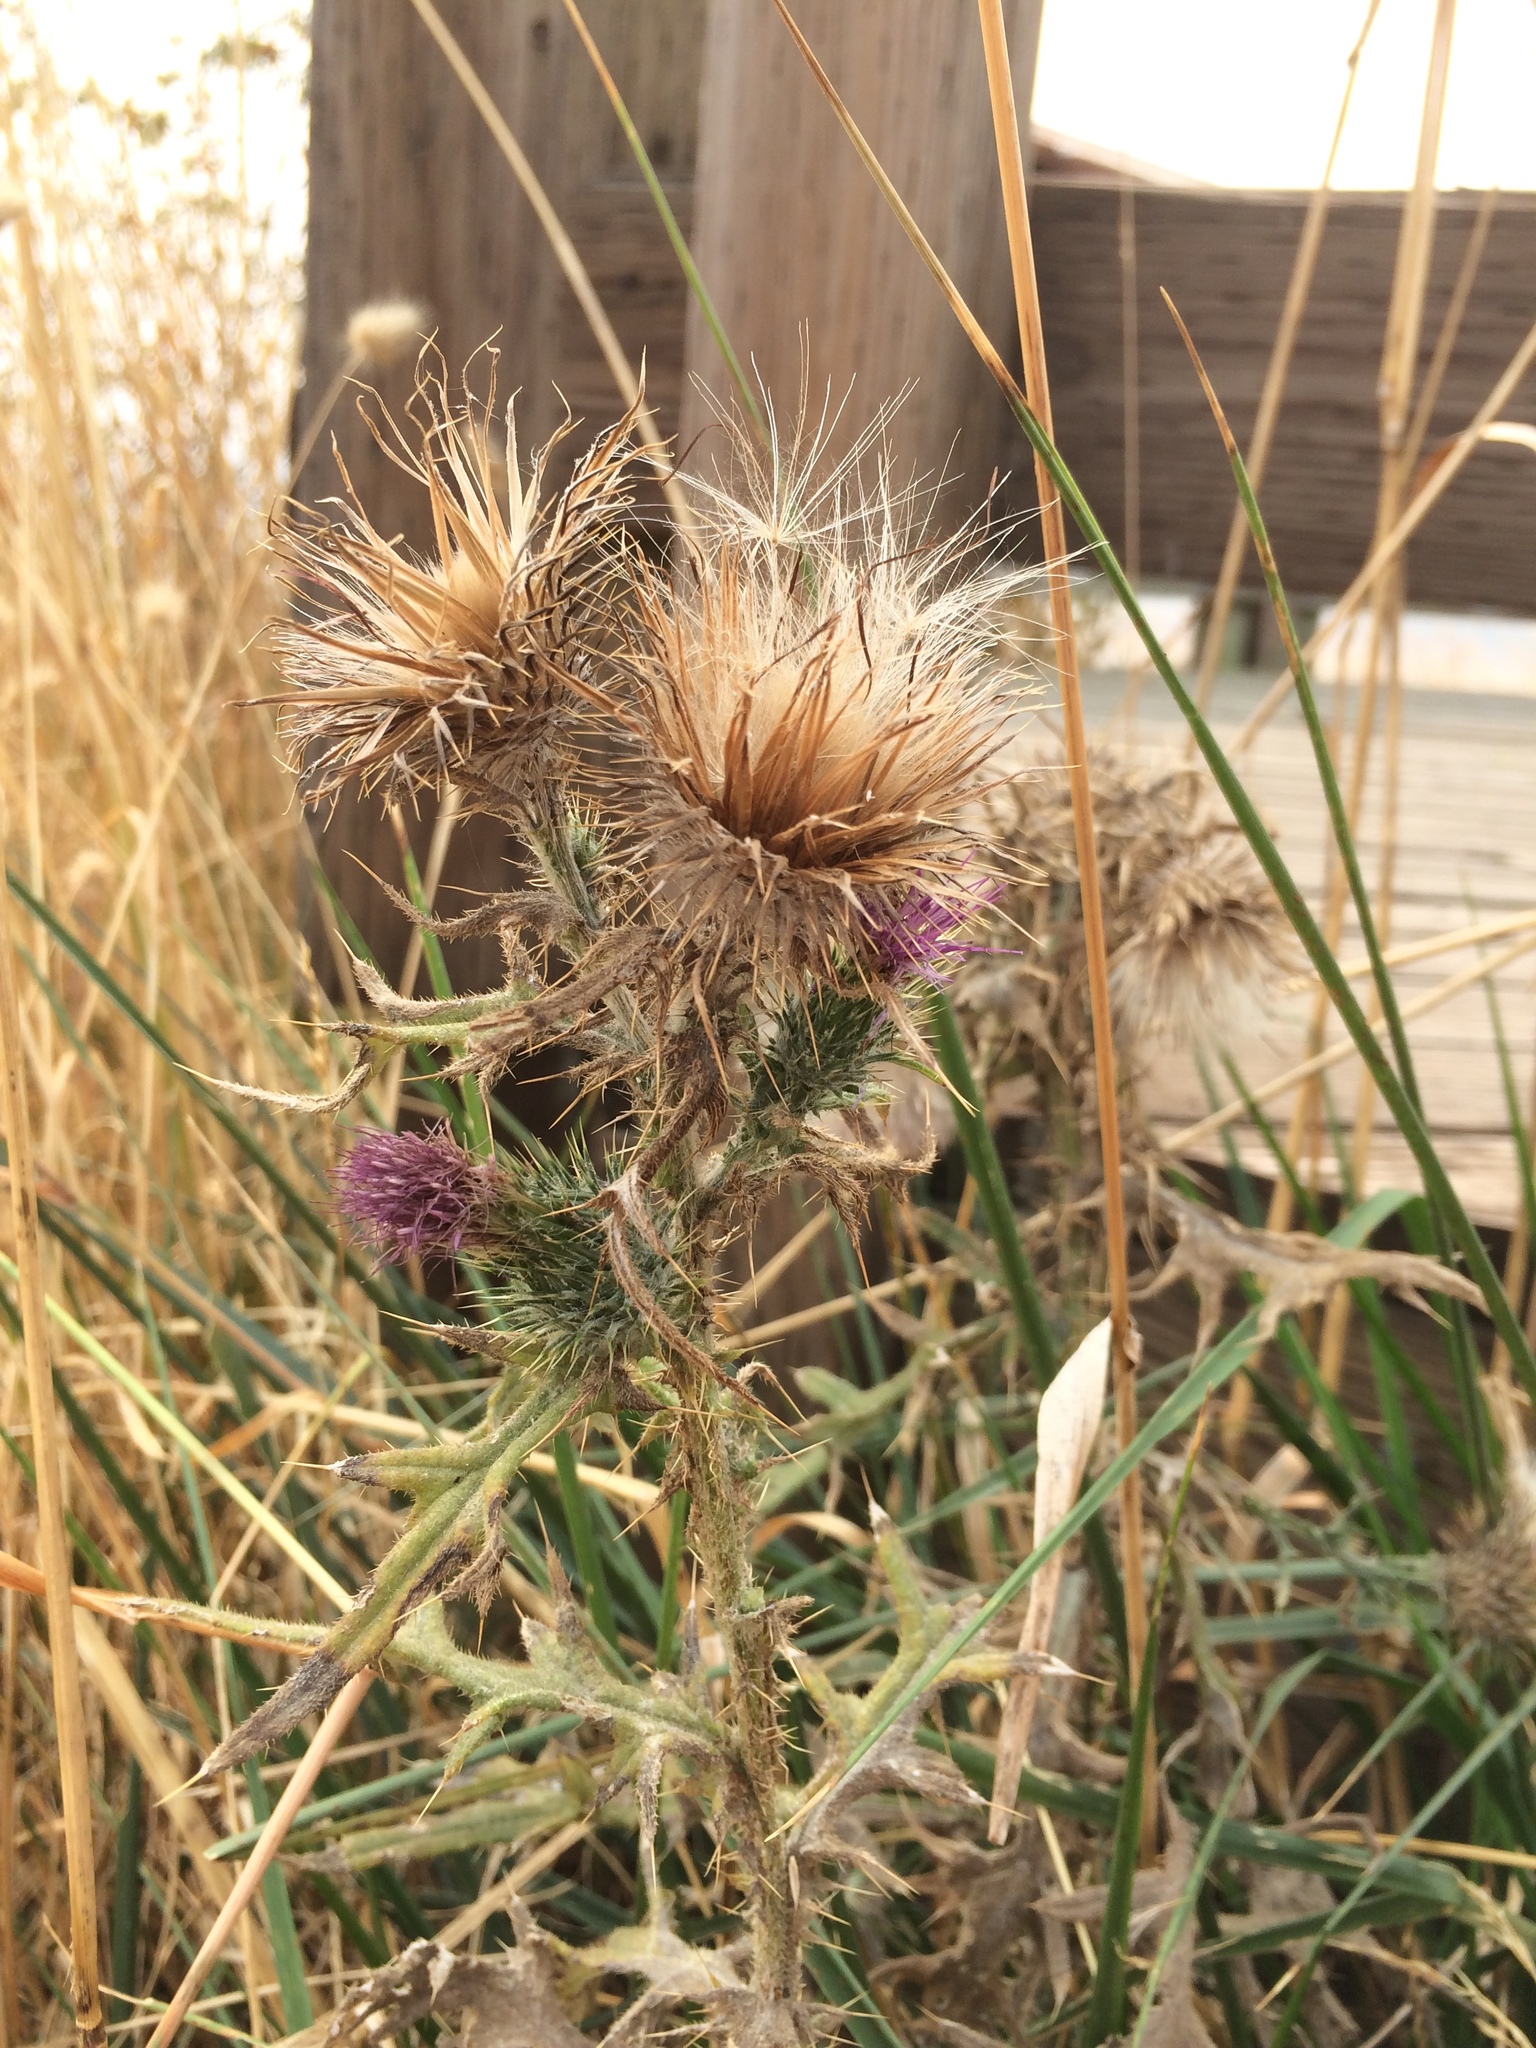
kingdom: Plantae
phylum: Tracheophyta
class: Magnoliopsida
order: Asterales
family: Asteraceae
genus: Cirsium
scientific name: Cirsium vulgare
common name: Bull thistle
